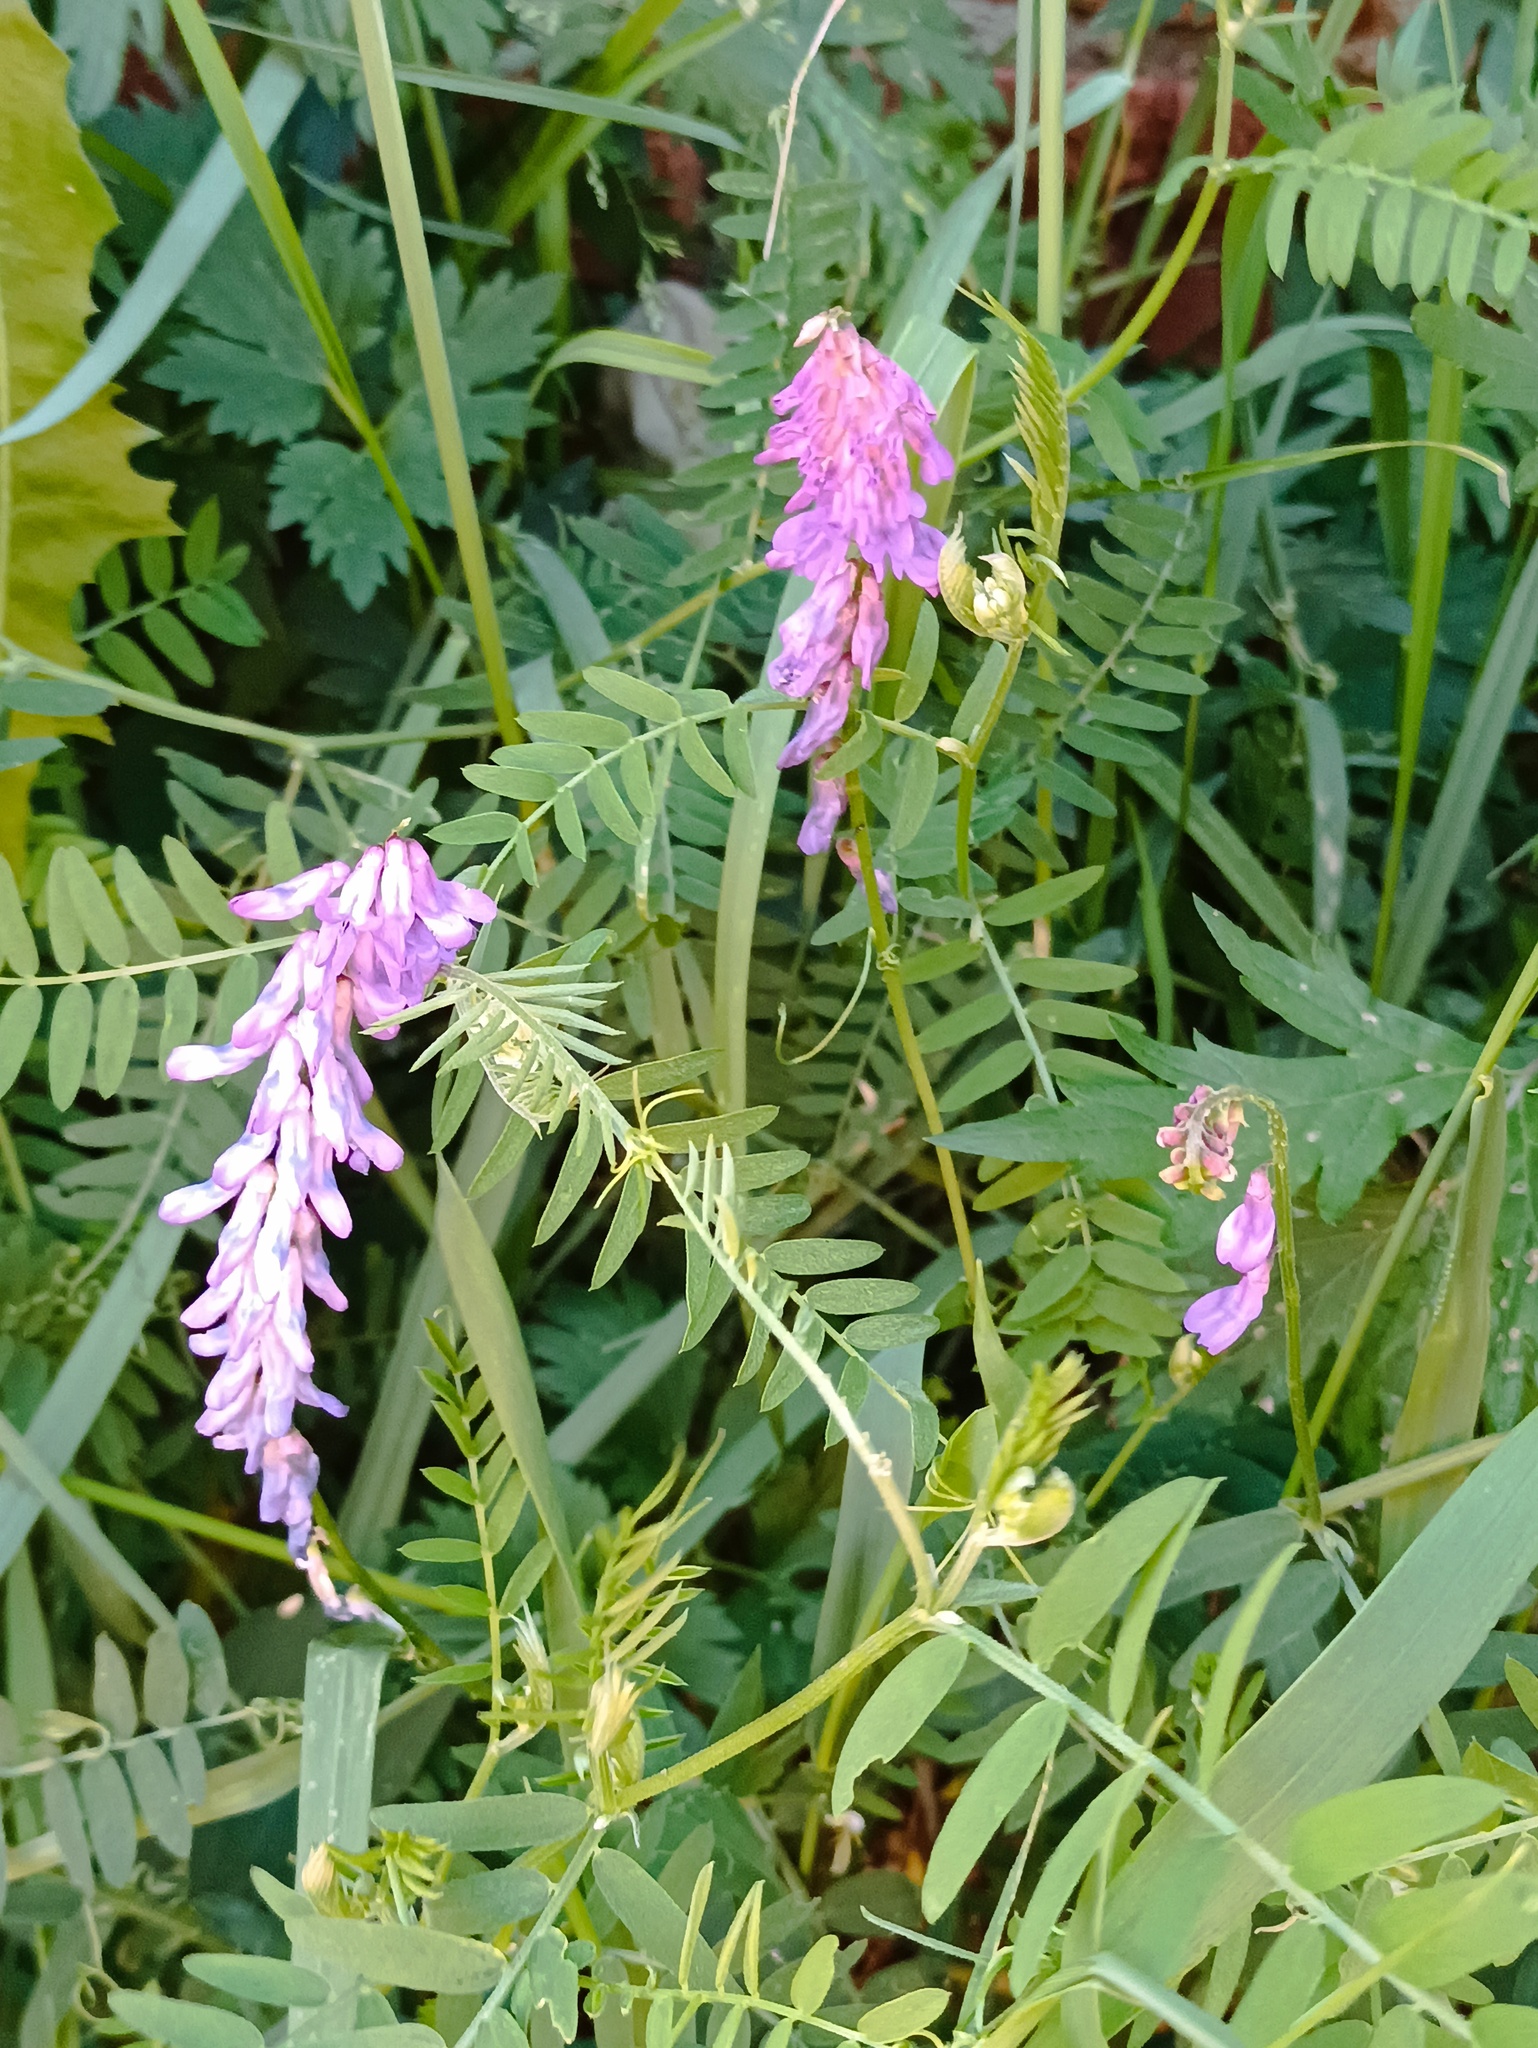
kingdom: Plantae
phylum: Tracheophyta
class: Magnoliopsida
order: Fabales
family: Fabaceae
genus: Vicia
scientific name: Vicia cracca
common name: Bird vetch
